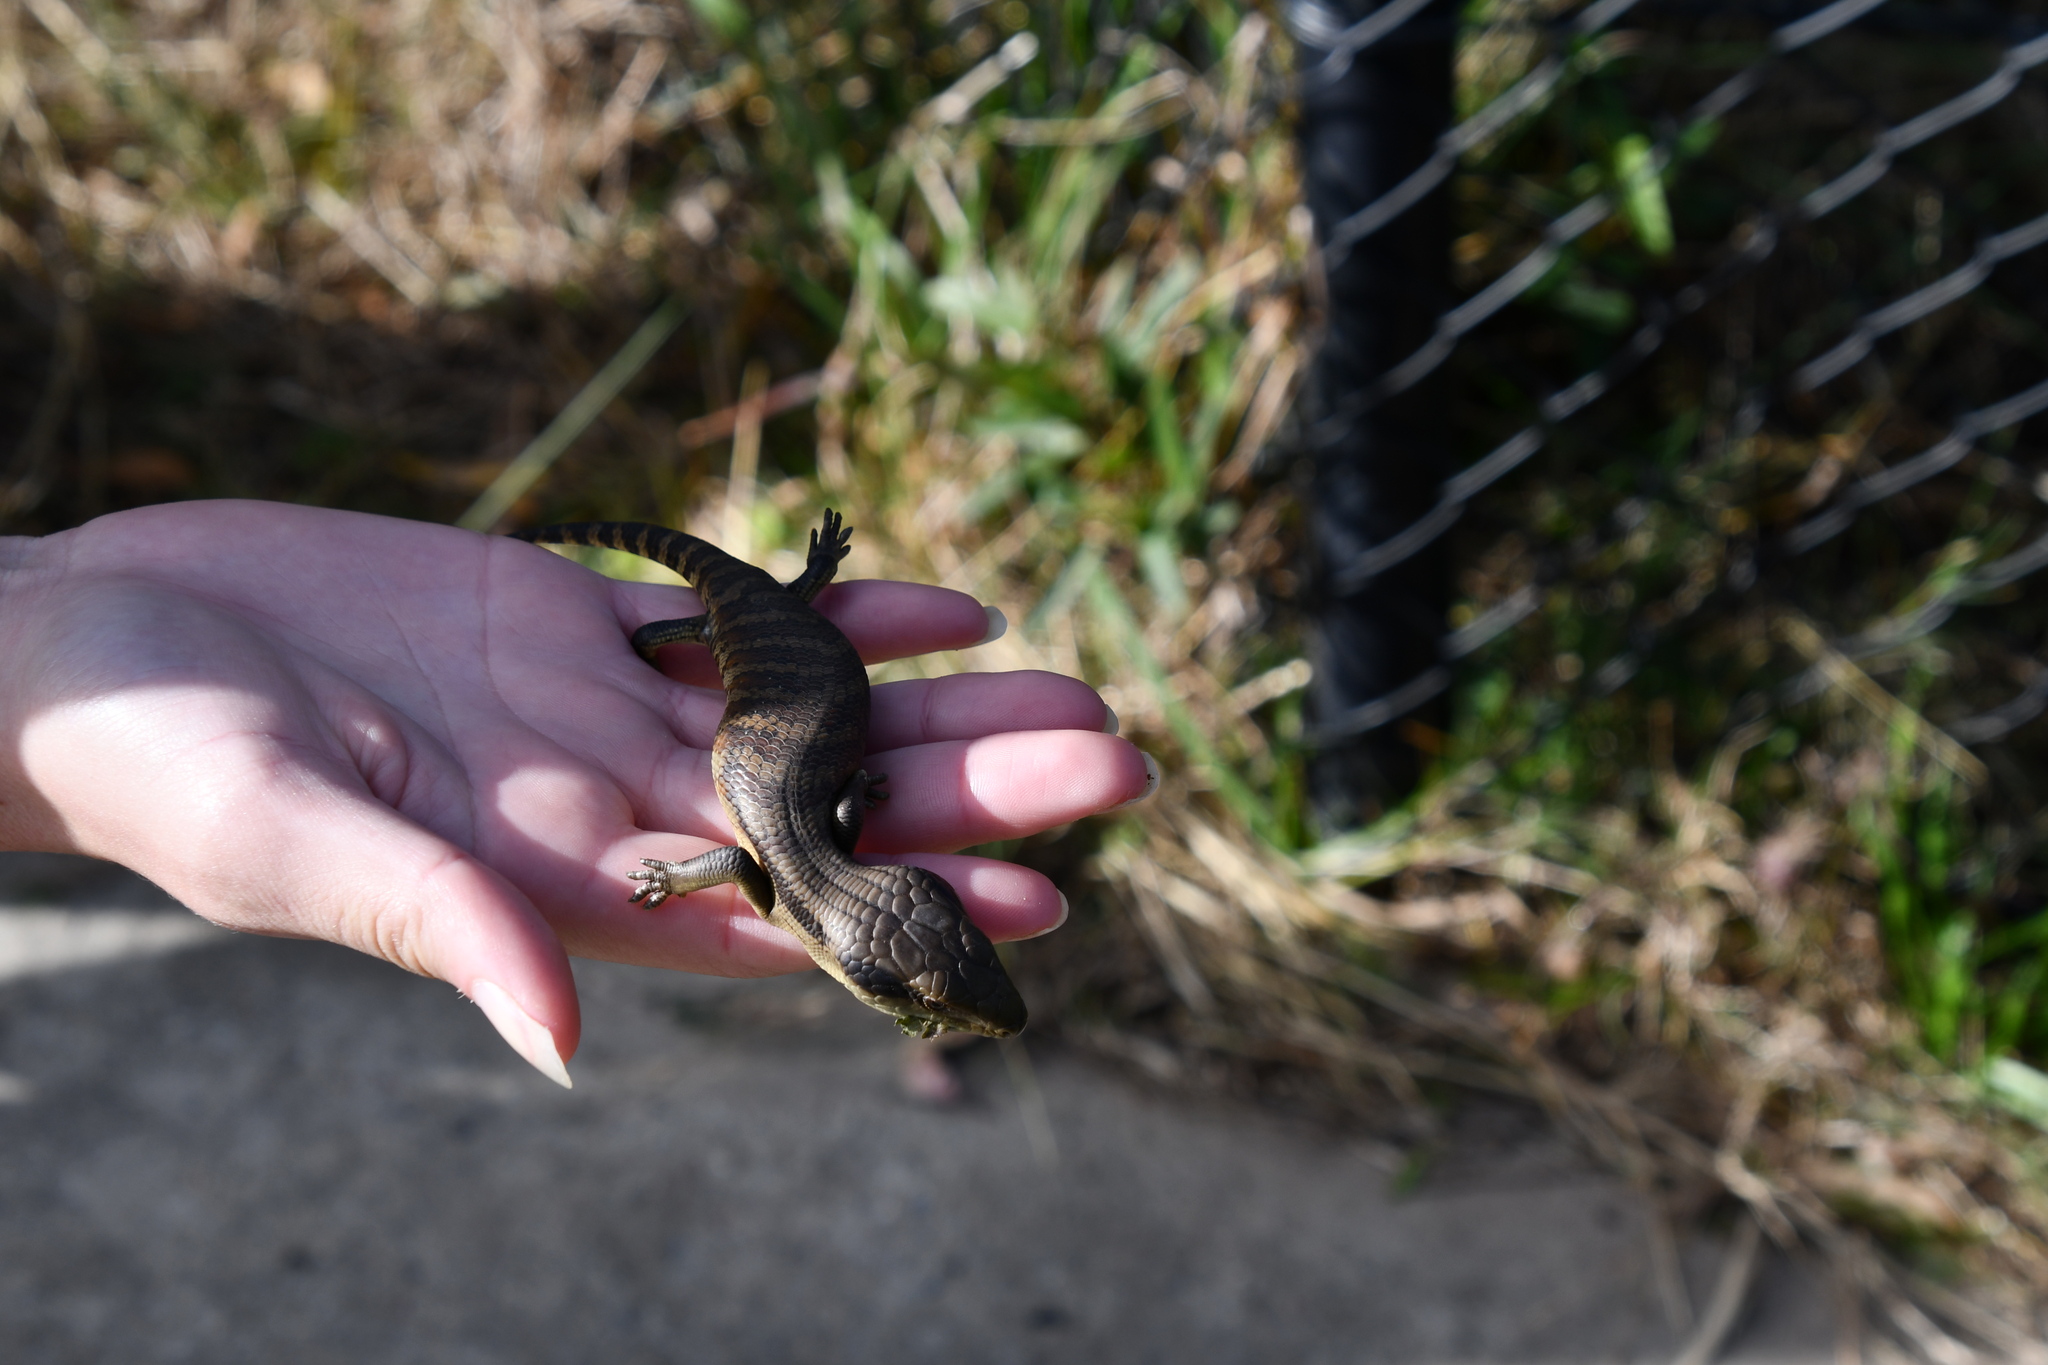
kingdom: Animalia
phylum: Chordata
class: Squamata
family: Scincidae
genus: Tiliqua
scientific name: Tiliqua scincoides
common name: Common bluetongue
